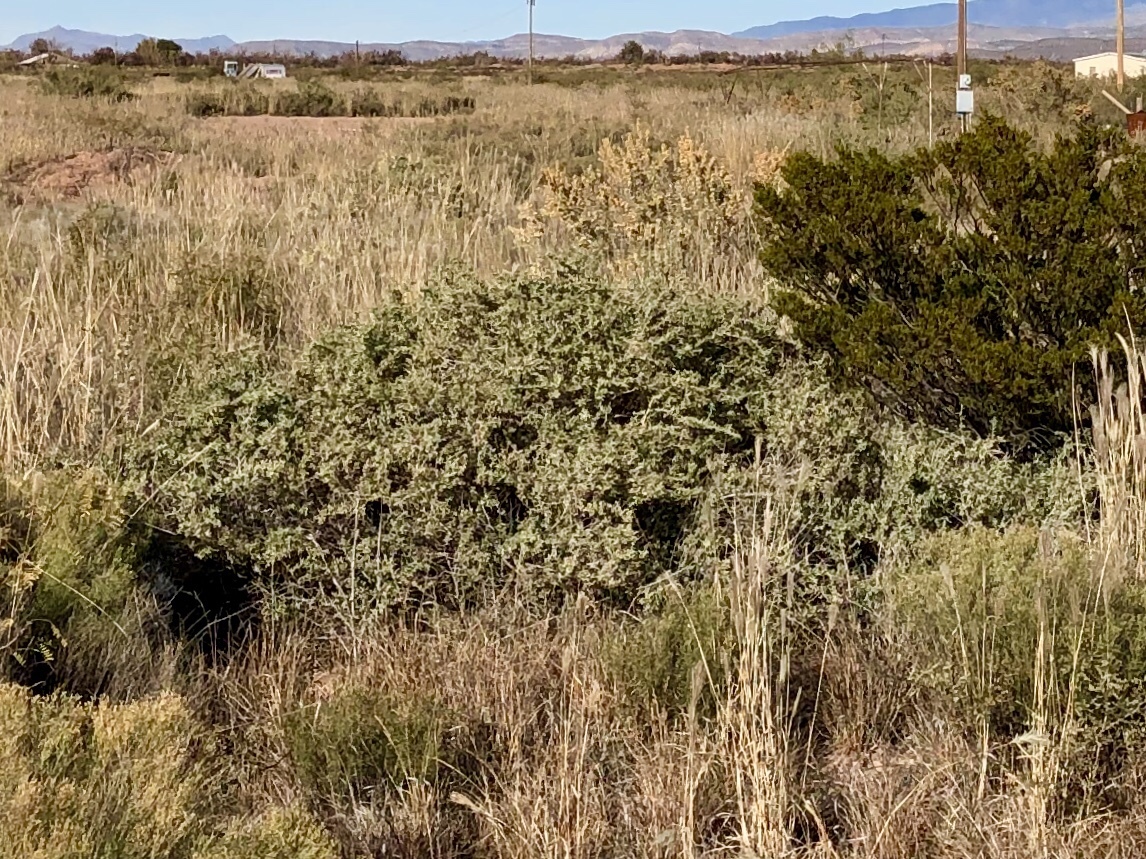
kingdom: Plantae
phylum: Tracheophyta
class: Magnoliopsida
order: Caryophyllales
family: Amaranthaceae
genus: Atriplex
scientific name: Atriplex canescens
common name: Four-wing saltbush
